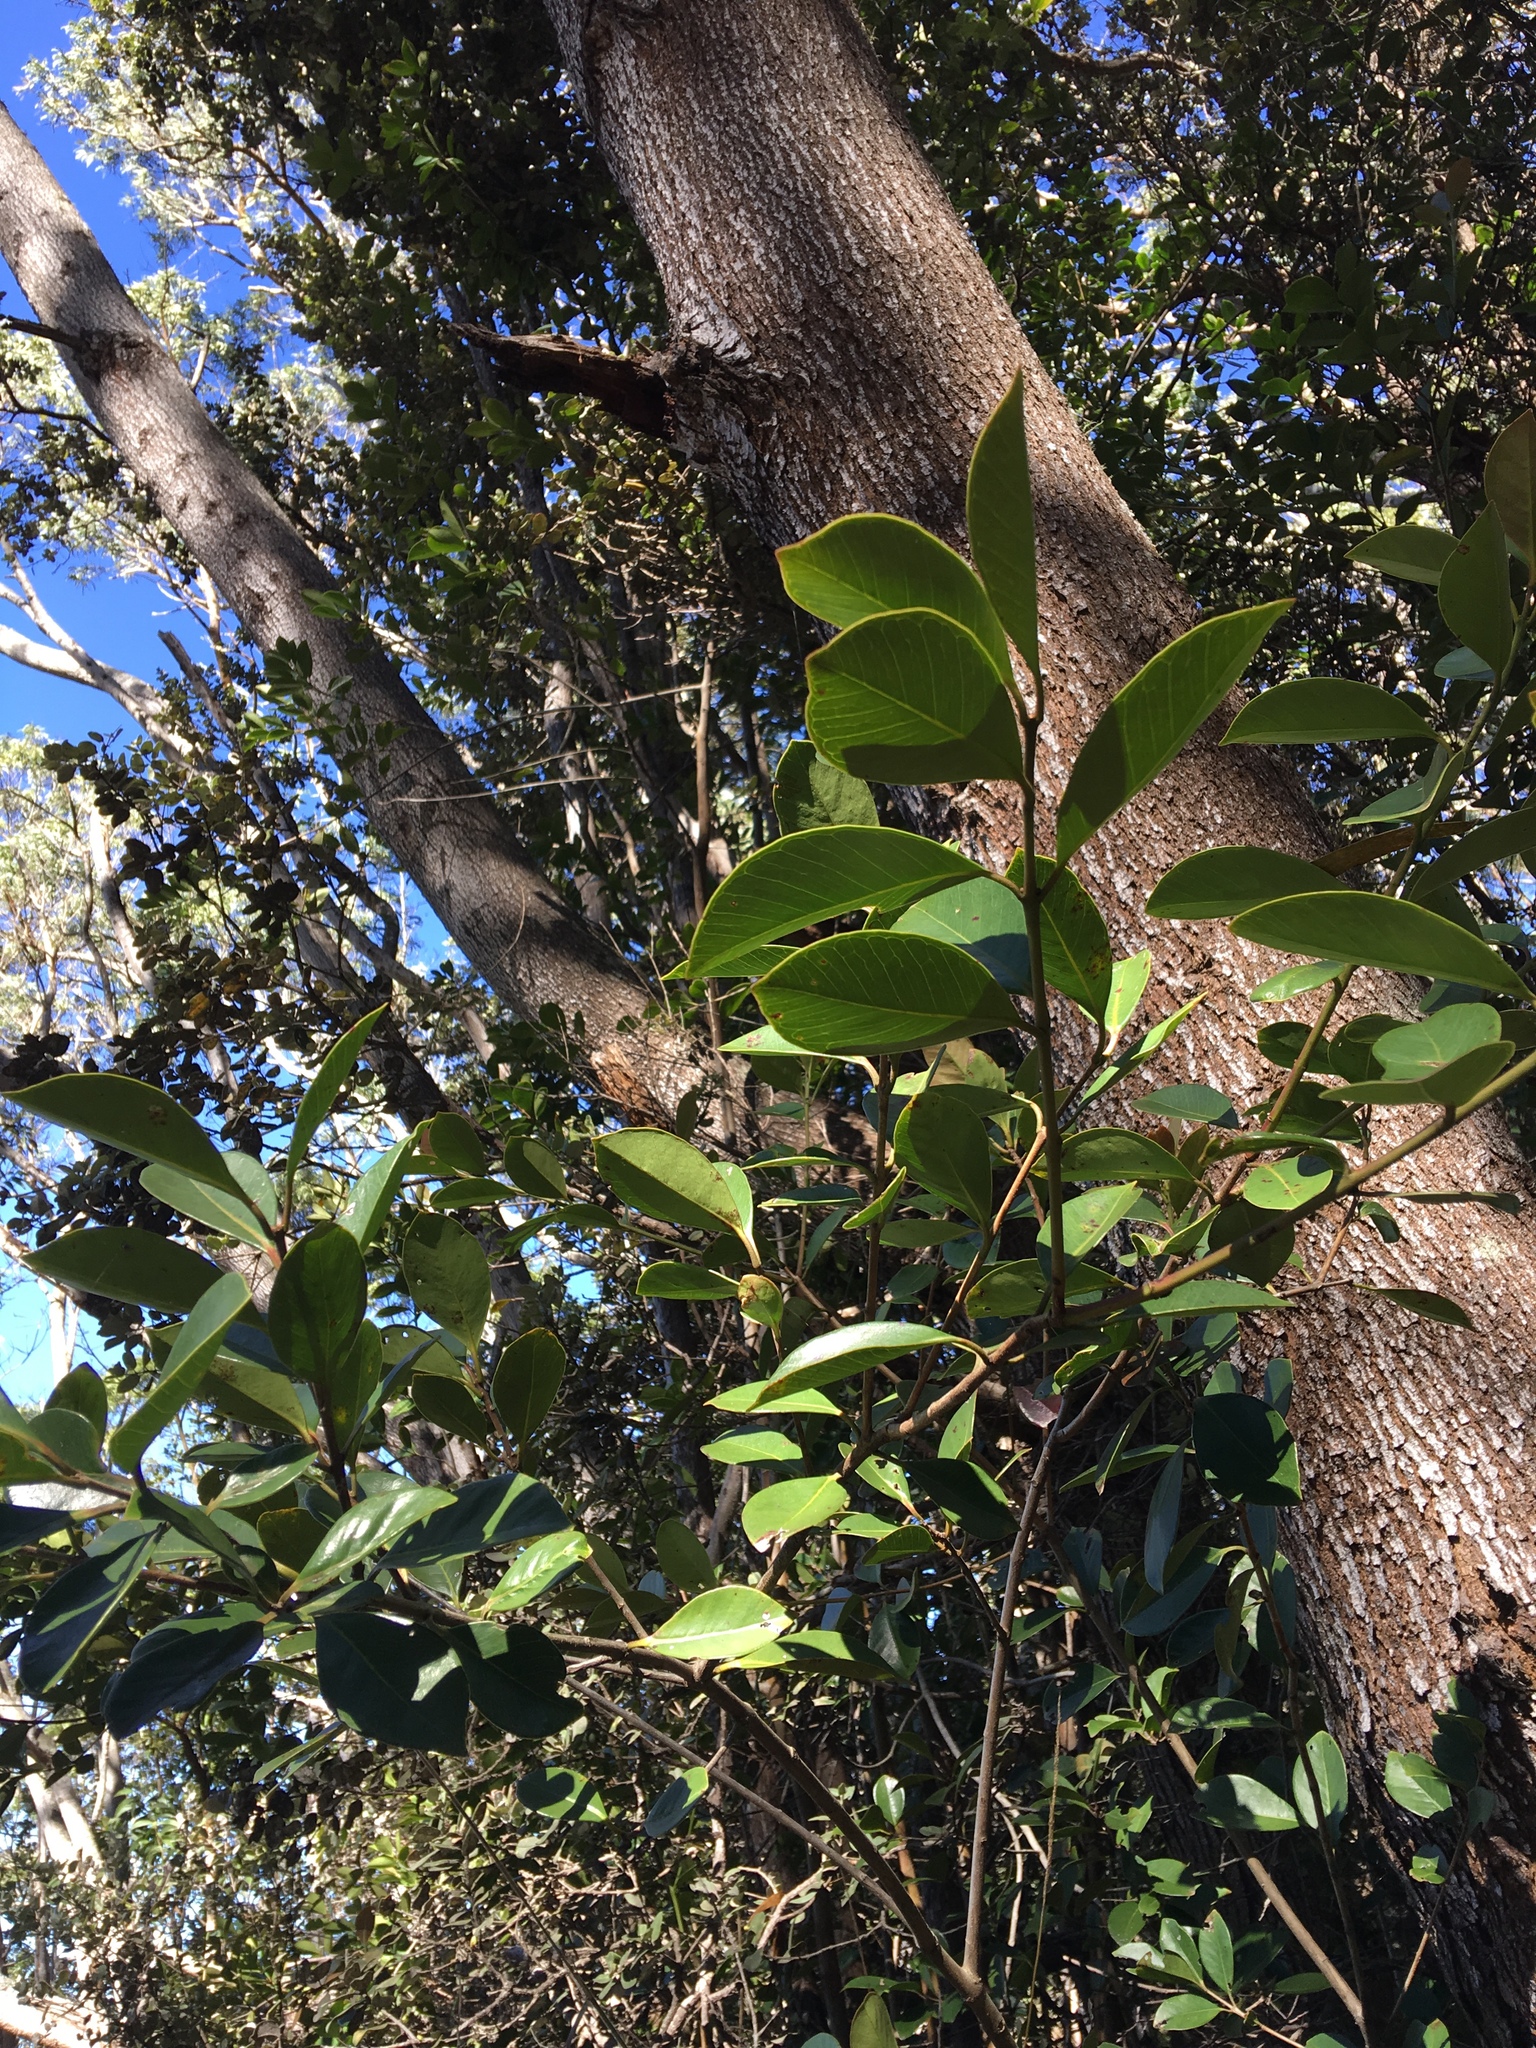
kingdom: Plantae
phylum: Tracheophyta
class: Magnoliopsida
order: Myrtales
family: Myrtaceae
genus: Psidium
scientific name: Psidium cattleianum
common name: Strawberry guava
